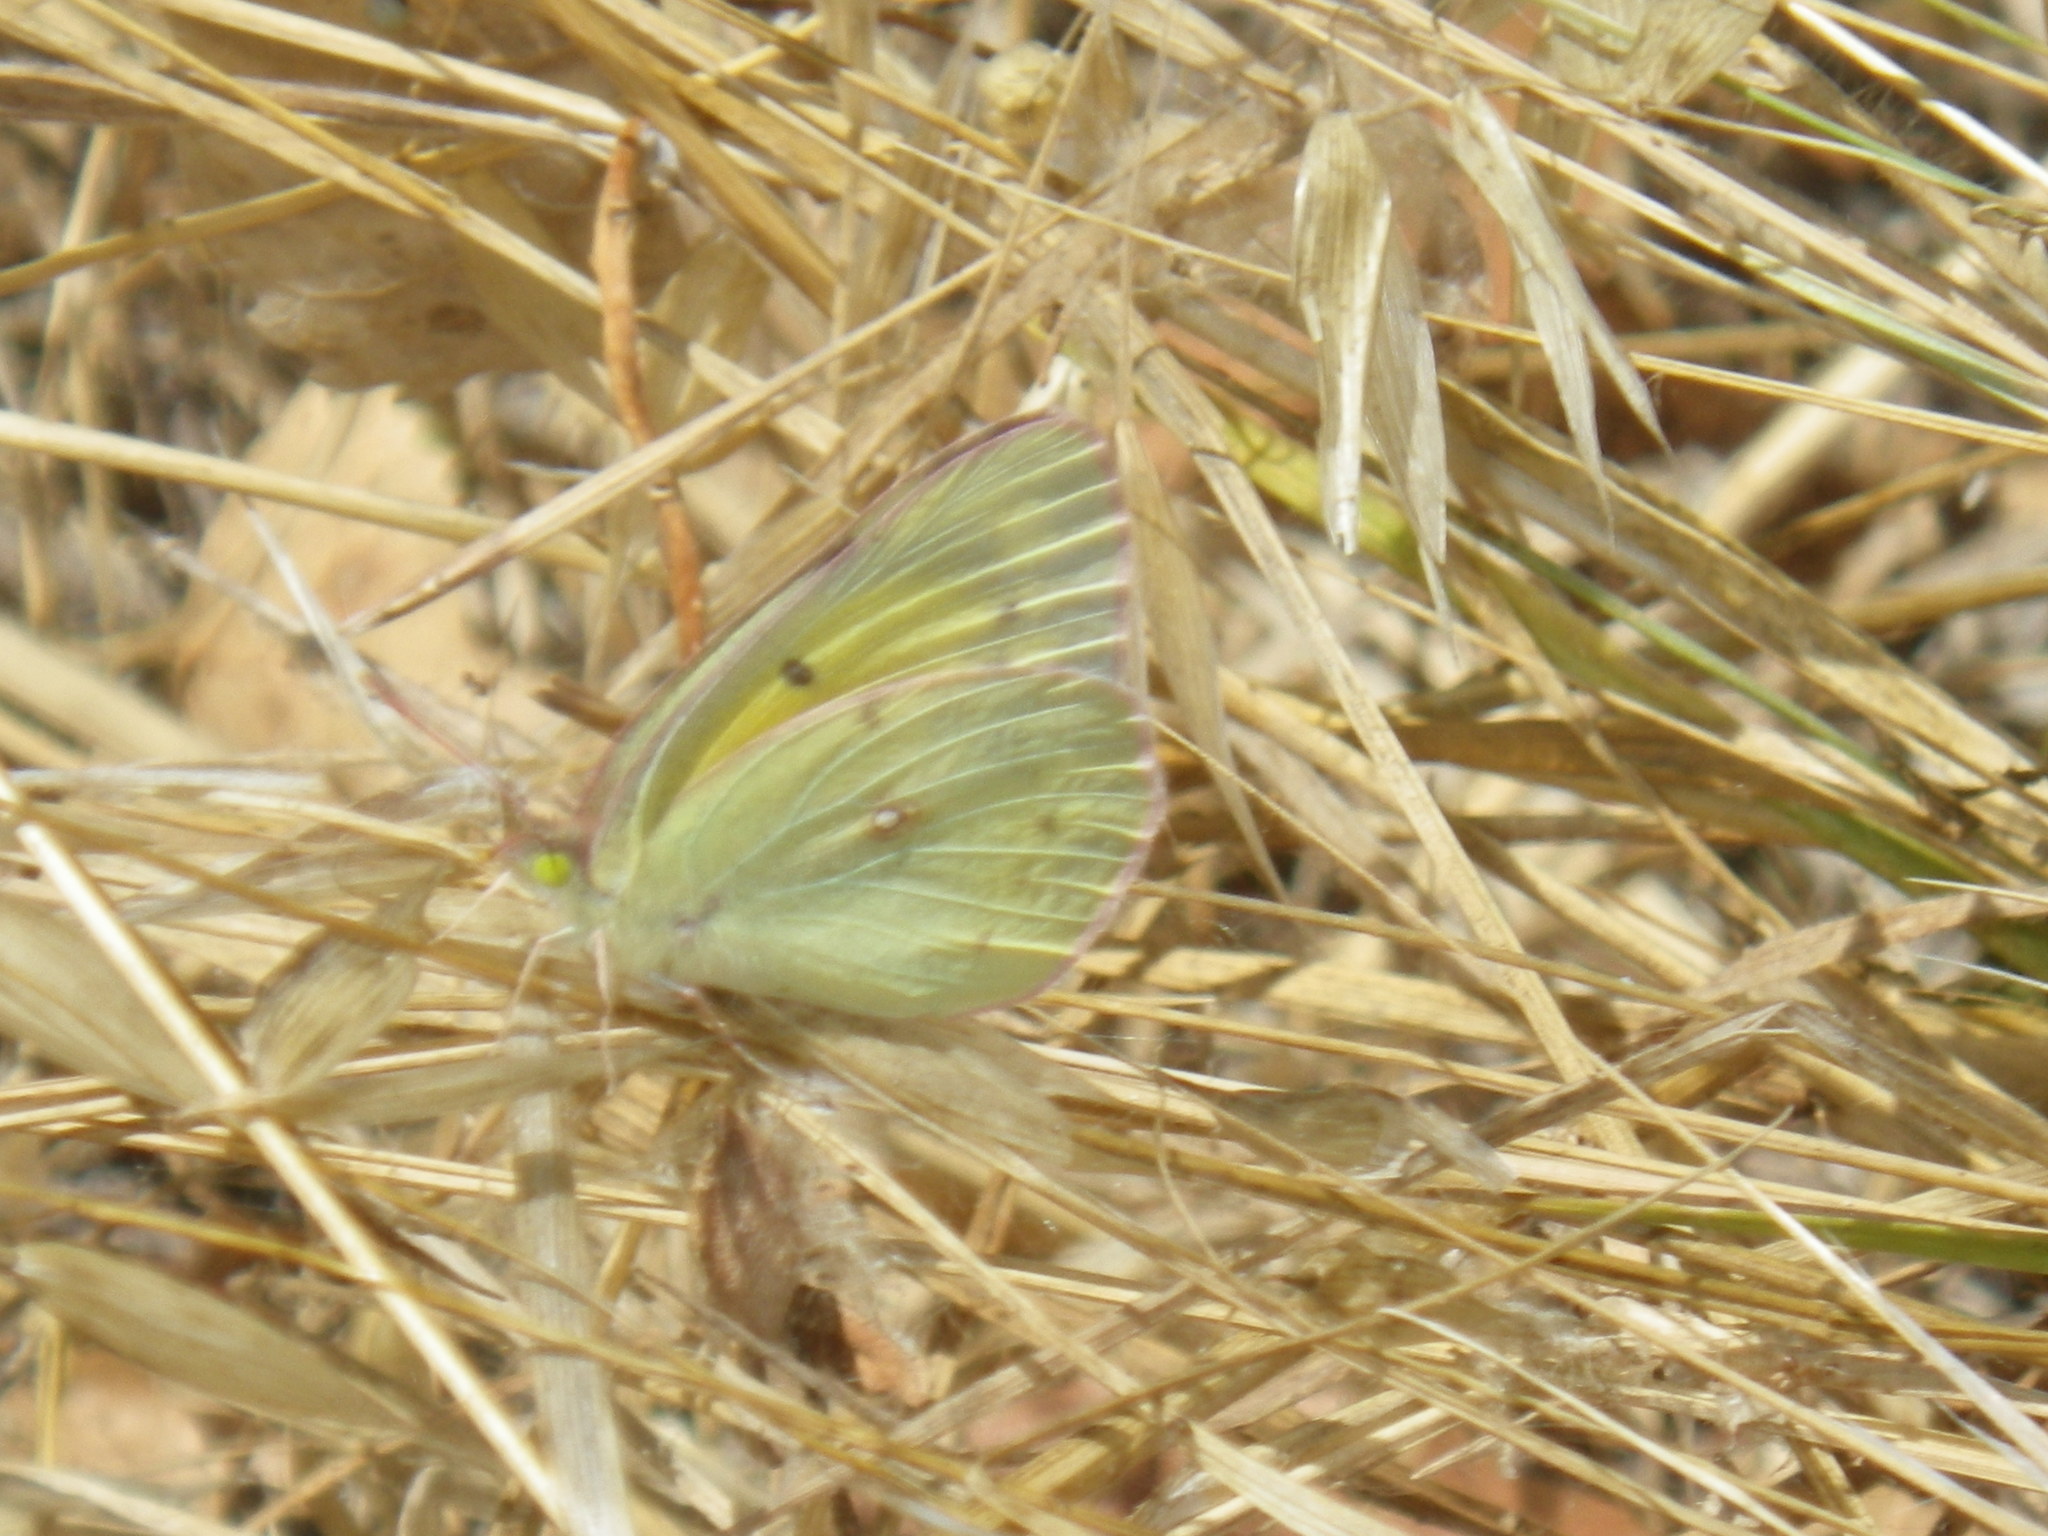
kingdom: Animalia
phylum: Arthropoda
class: Insecta
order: Lepidoptera
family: Pieridae
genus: Colias
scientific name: Colias eurytheme
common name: Alfalfa butterfly
